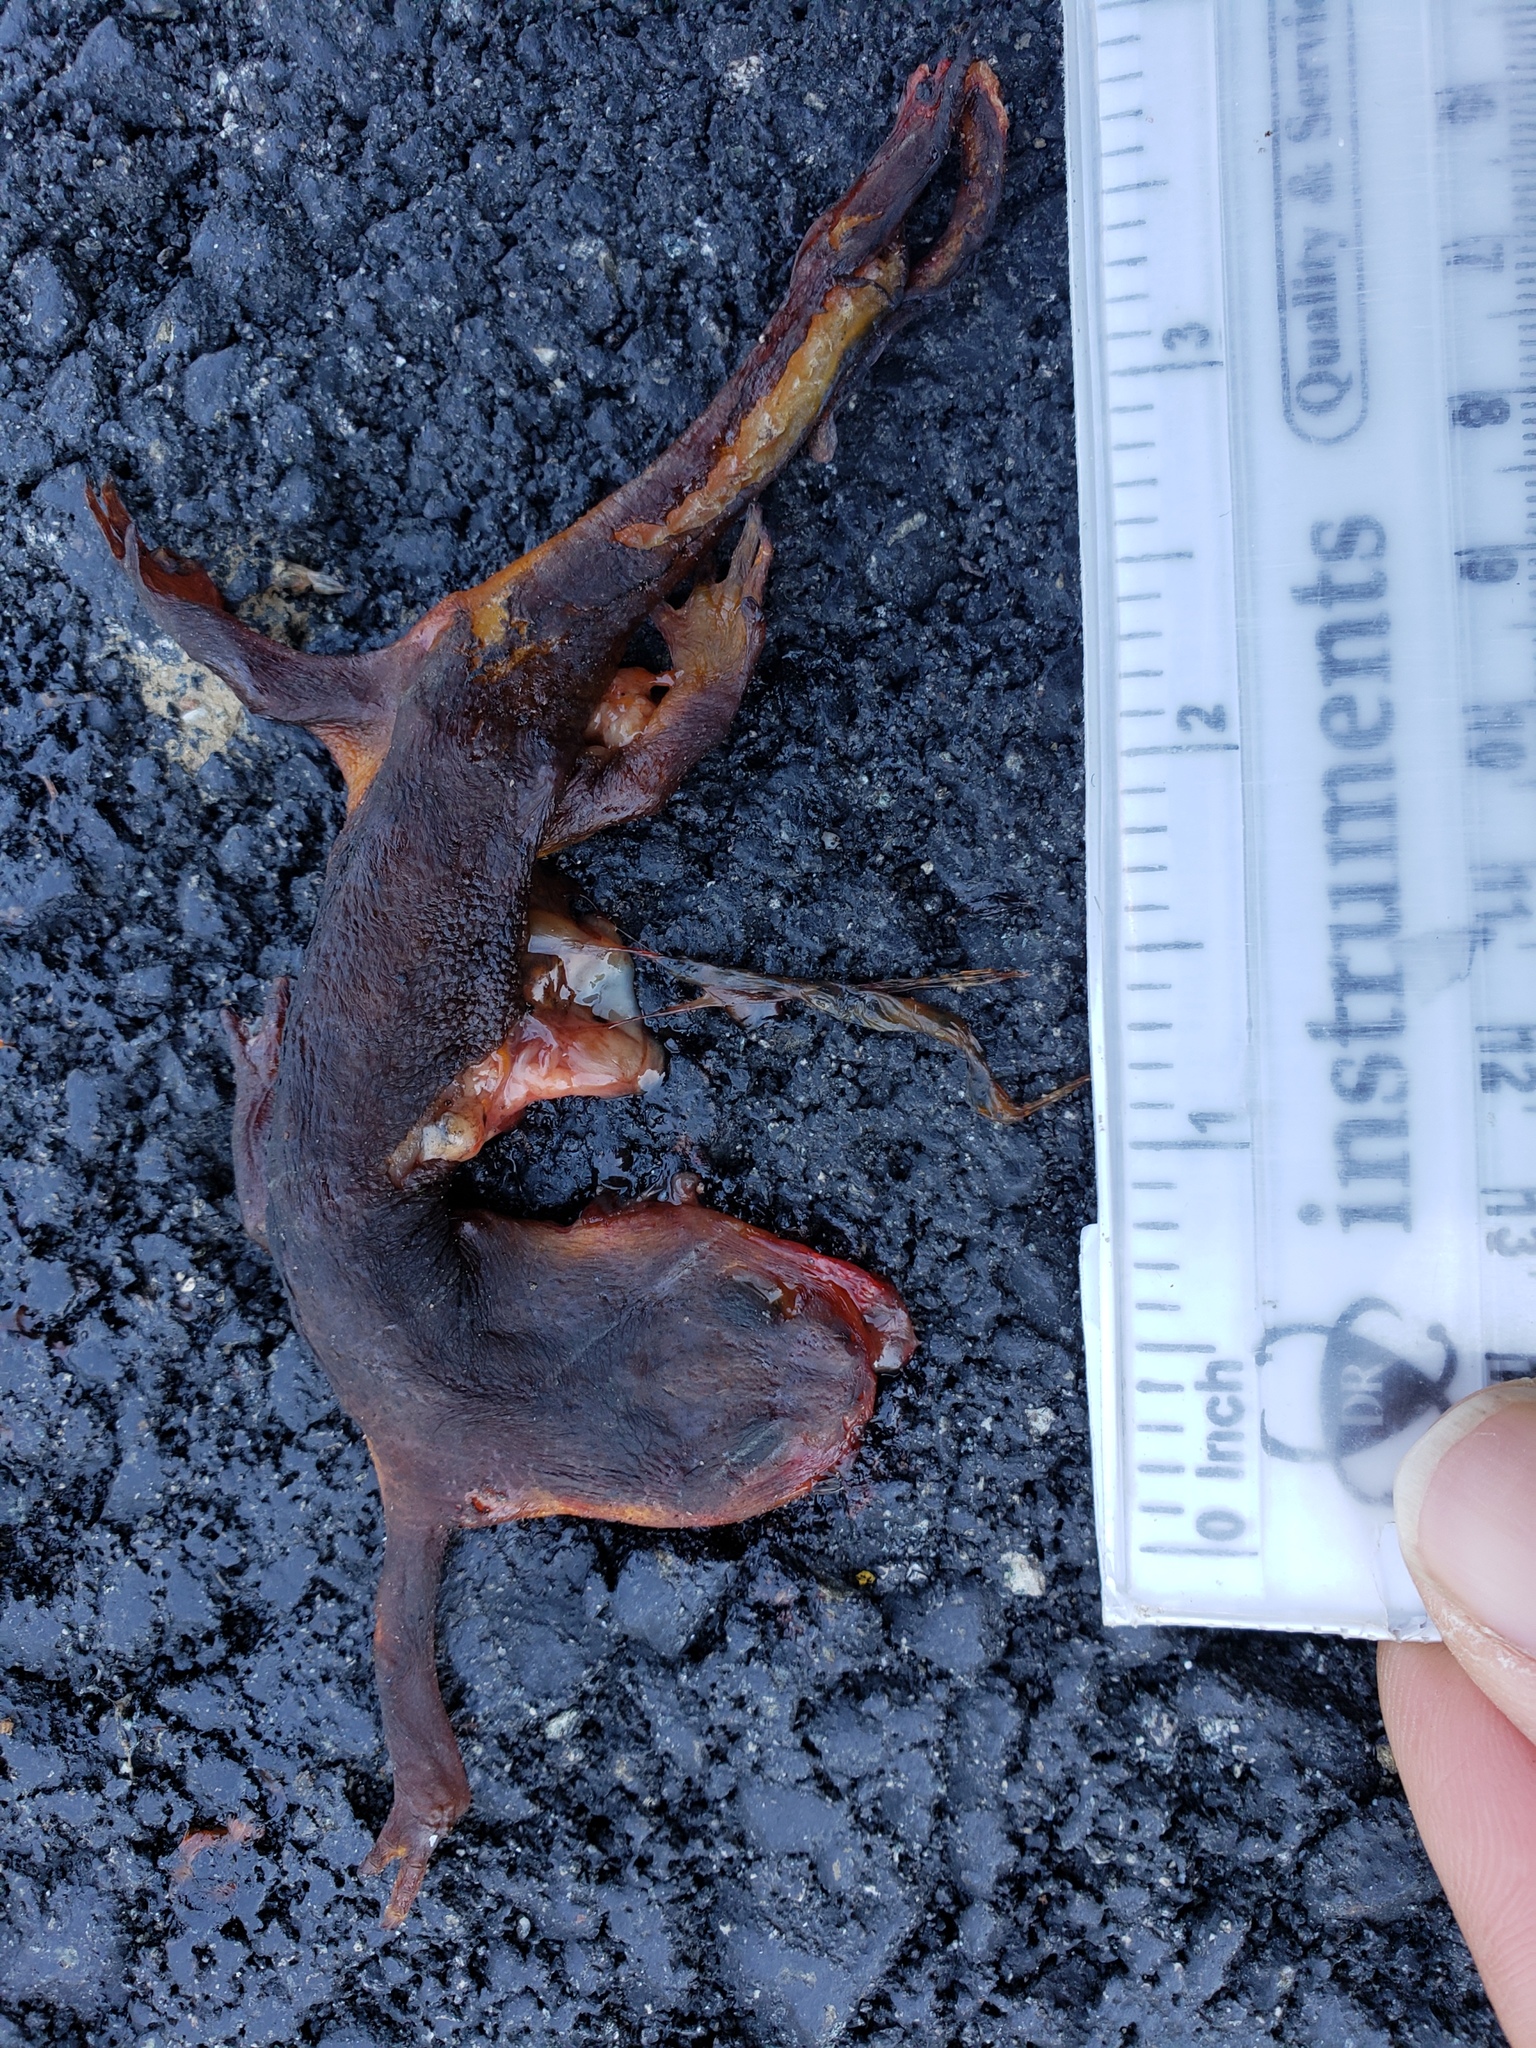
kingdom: Animalia
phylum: Chordata
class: Amphibia
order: Caudata
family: Salamandridae
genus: Taricha
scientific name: Taricha
